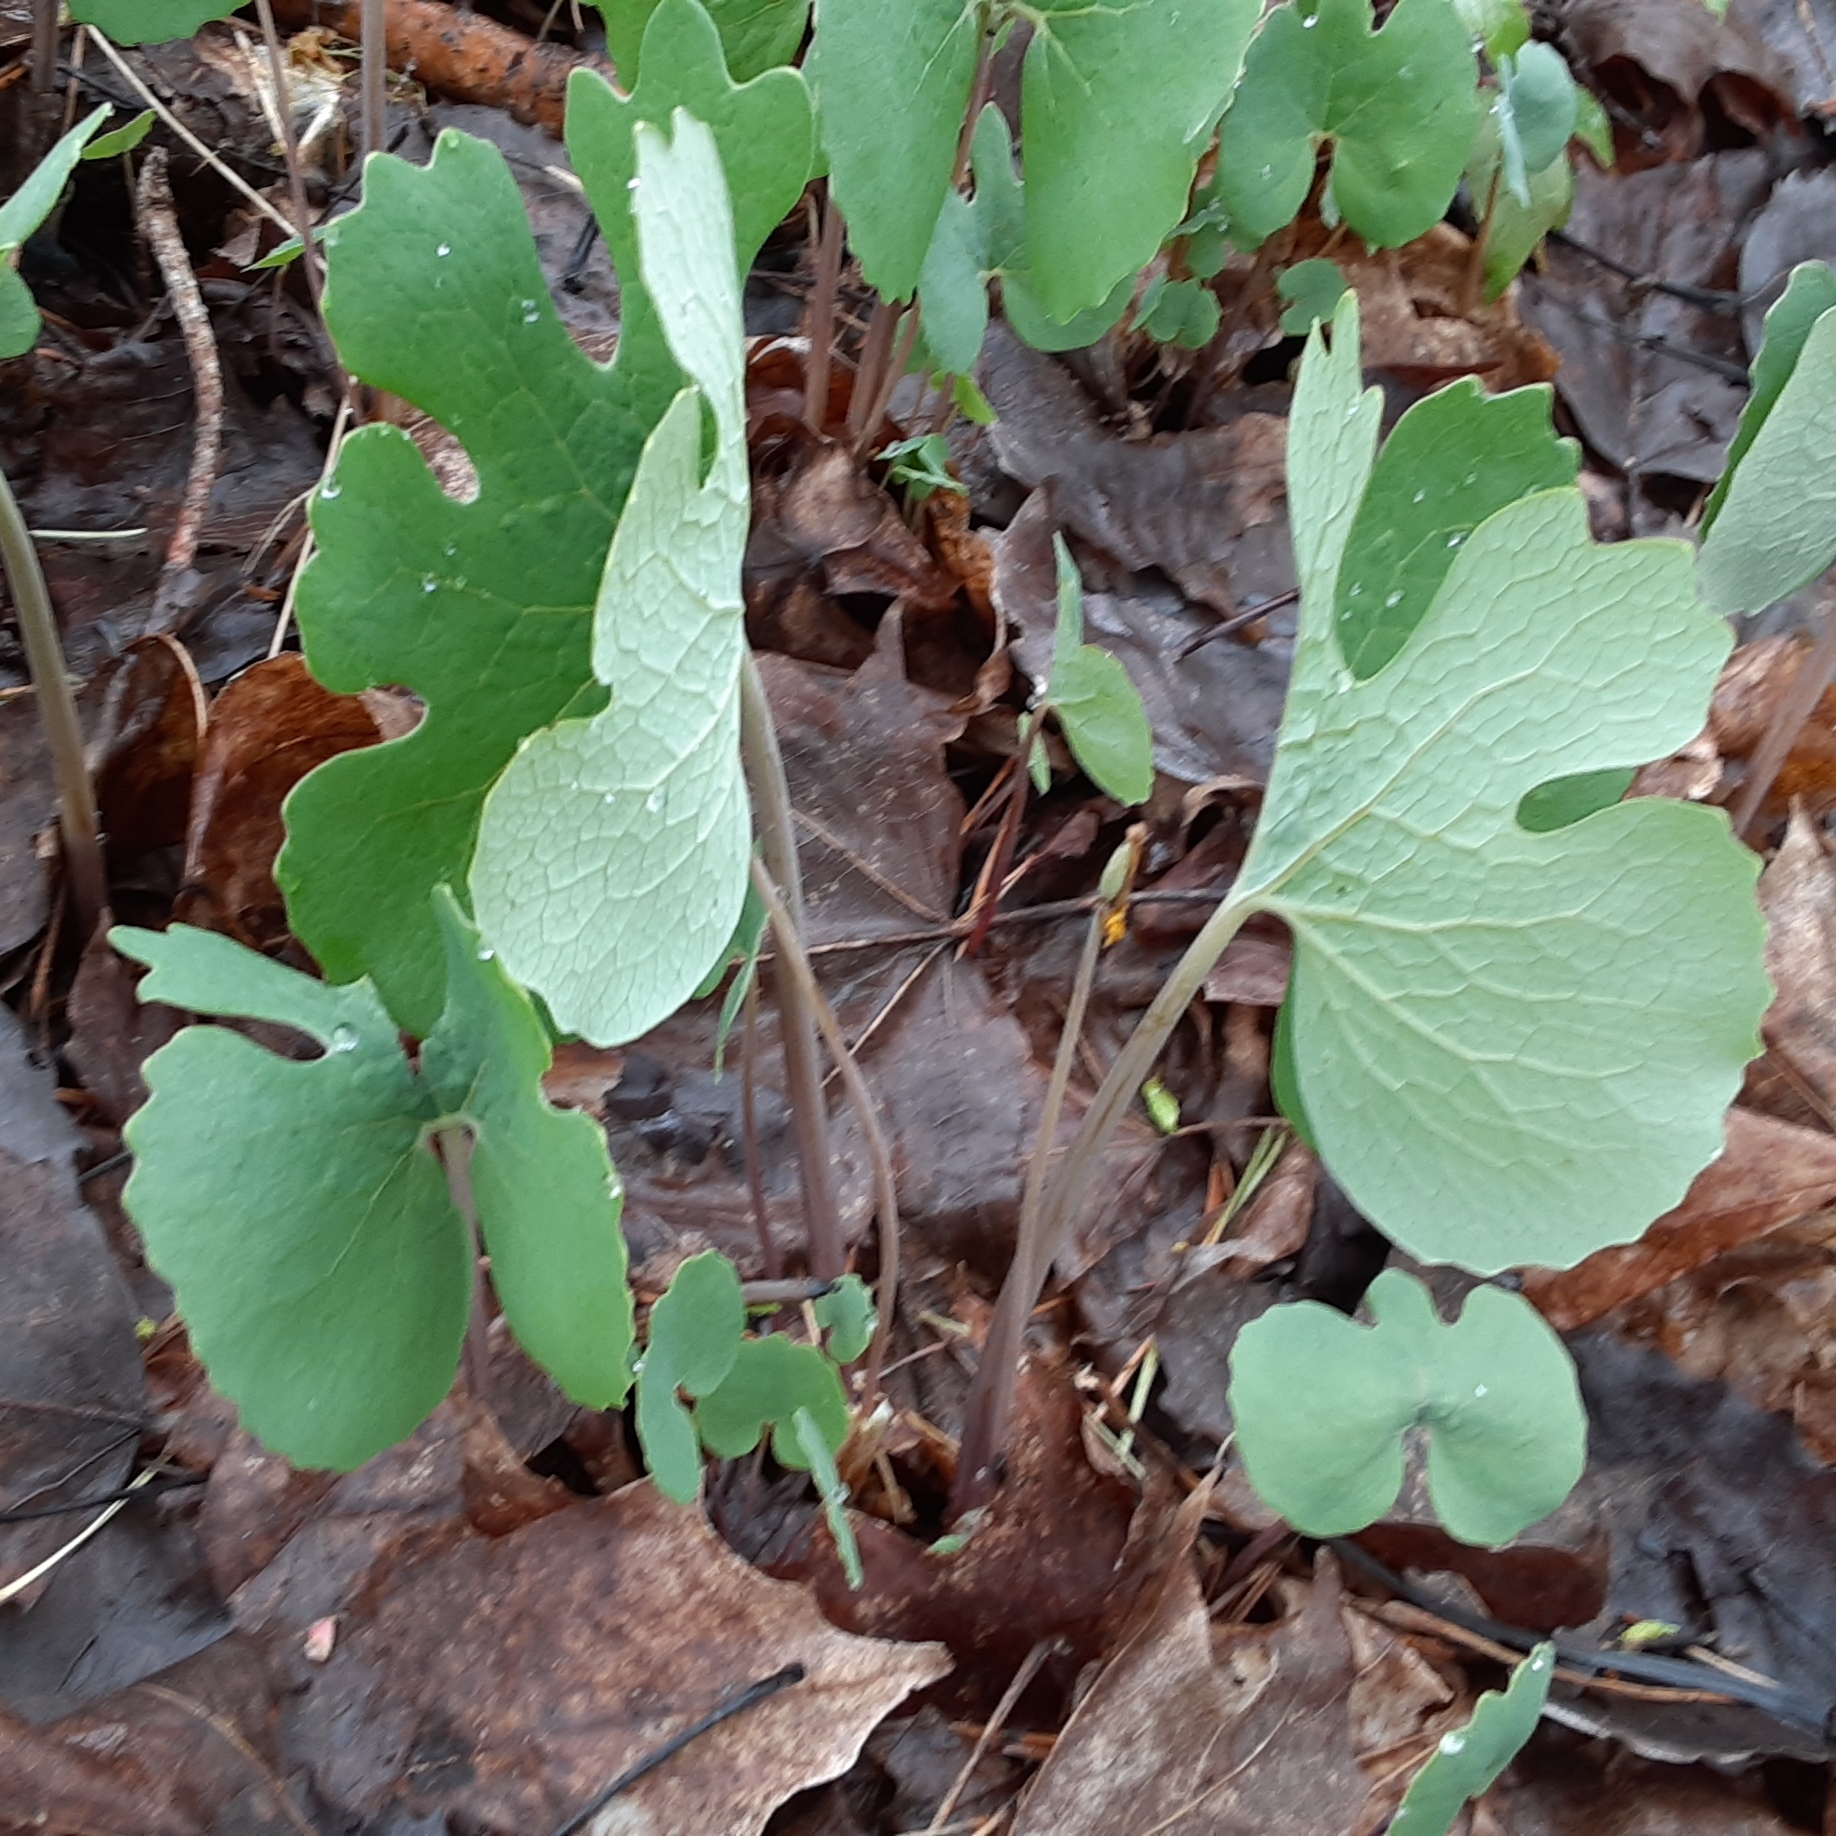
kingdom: Plantae
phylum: Tracheophyta
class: Magnoliopsida
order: Ranunculales
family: Papaveraceae
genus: Sanguinaria
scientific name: Sanguinaria canadensis
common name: Bloodroot
